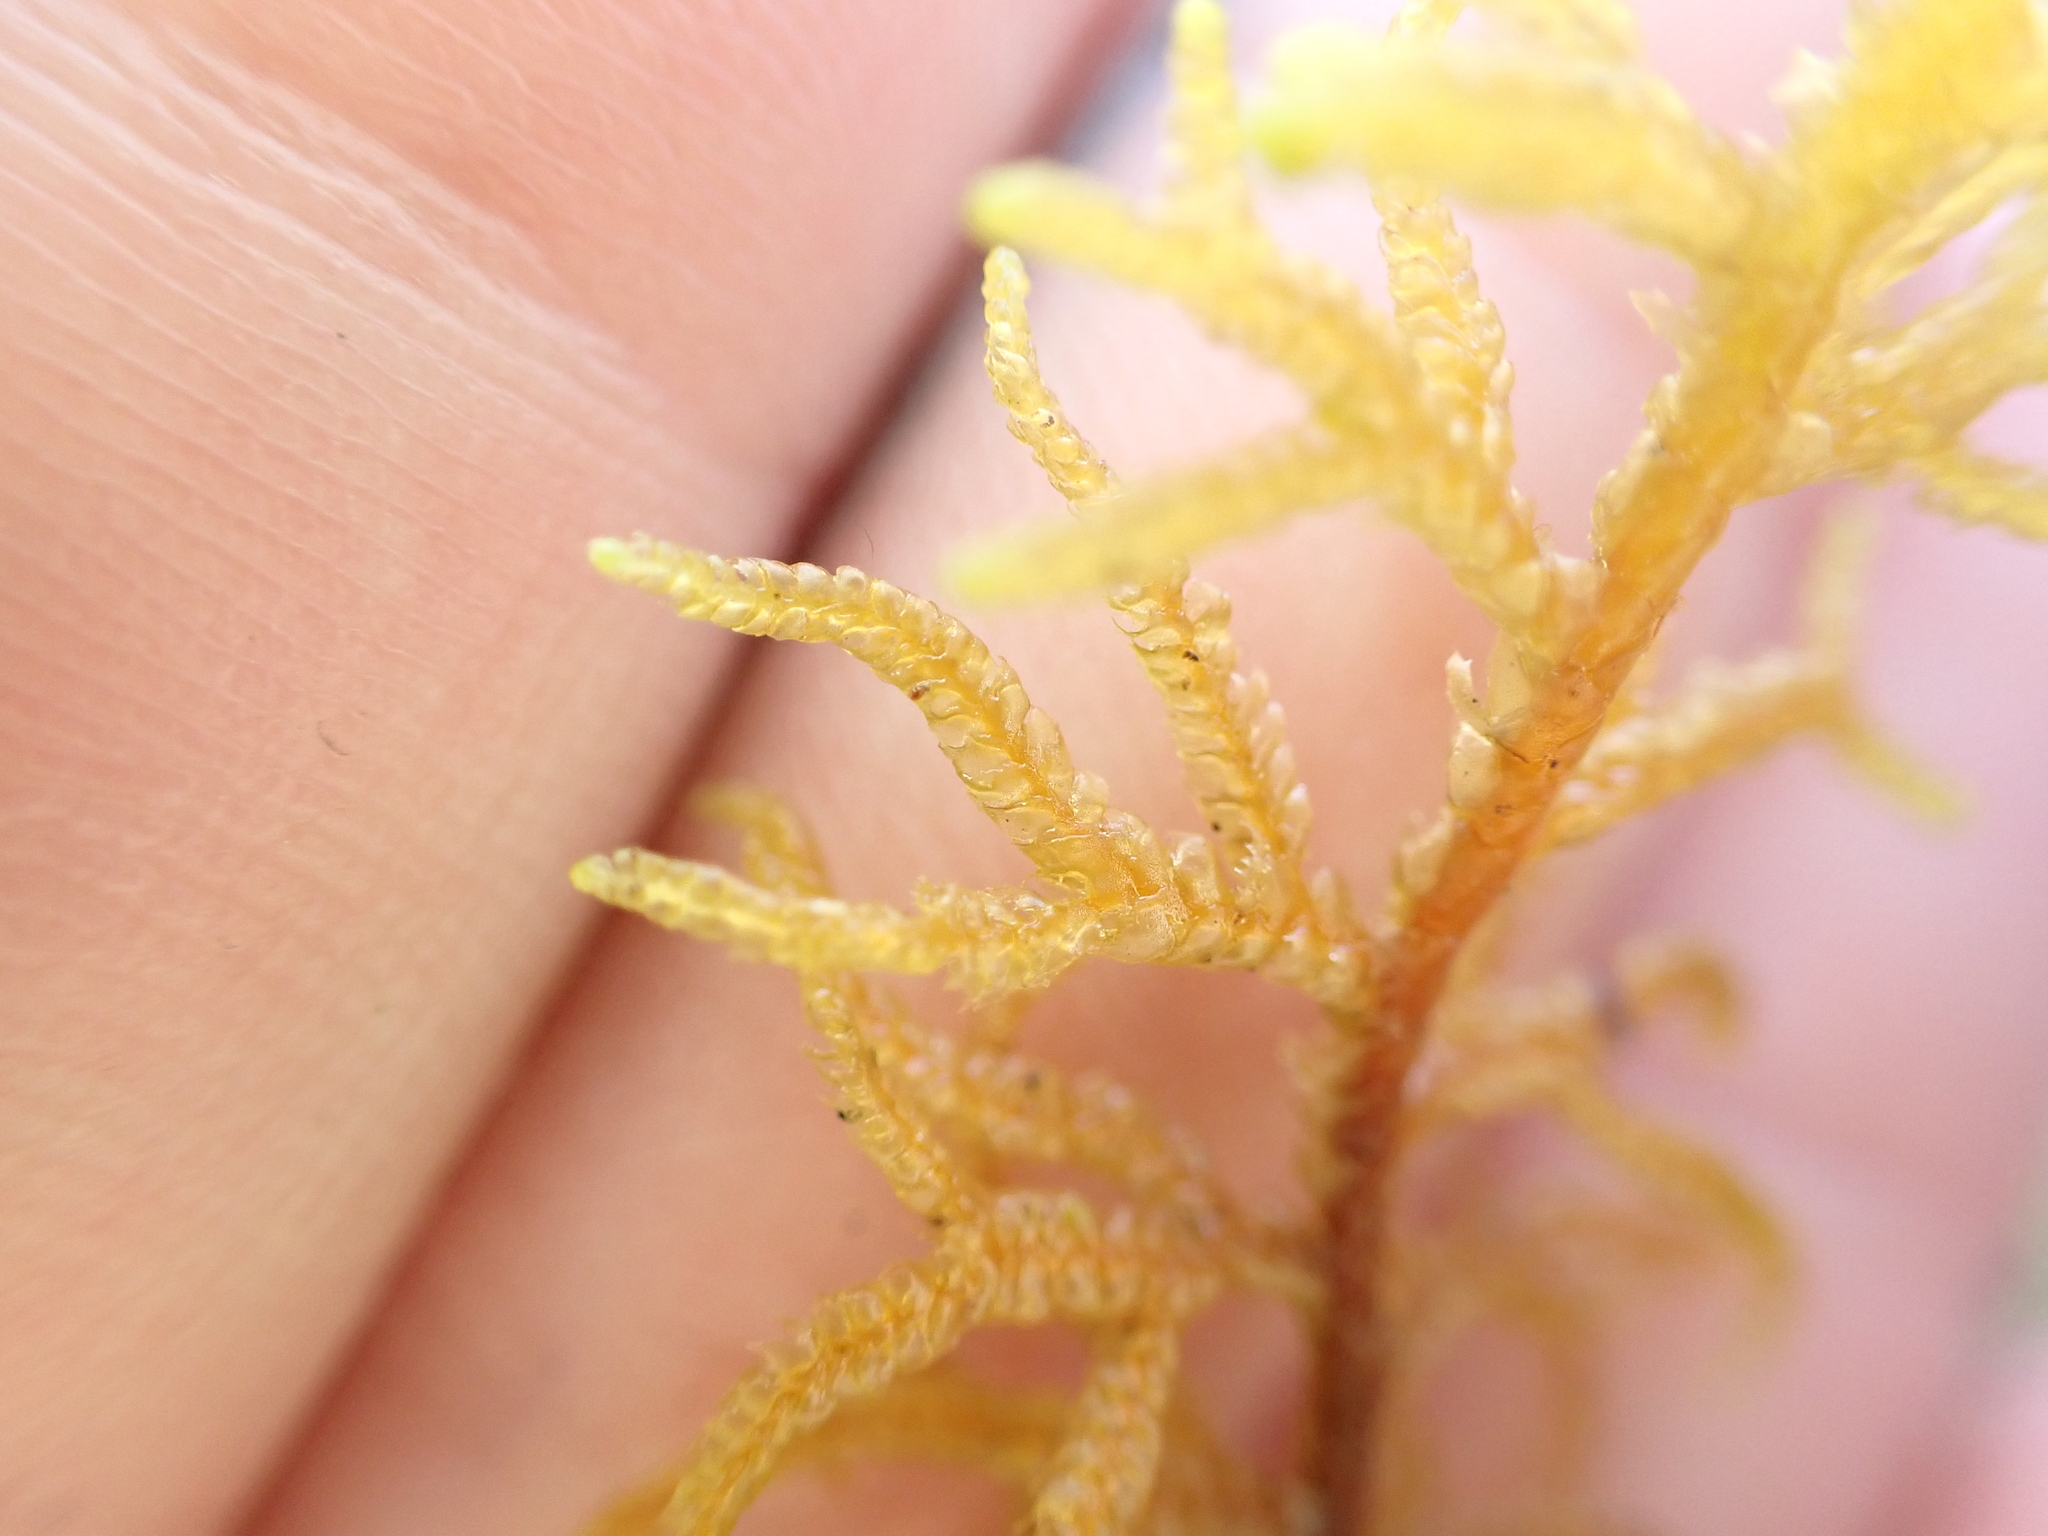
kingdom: Plantae
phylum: Marchantiophyta
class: Jungermanniopsida
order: Jungermanniales
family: Mastigophoraceae
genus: Mastigophora
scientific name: Mastigophora woodsii
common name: Wood's whipwort
